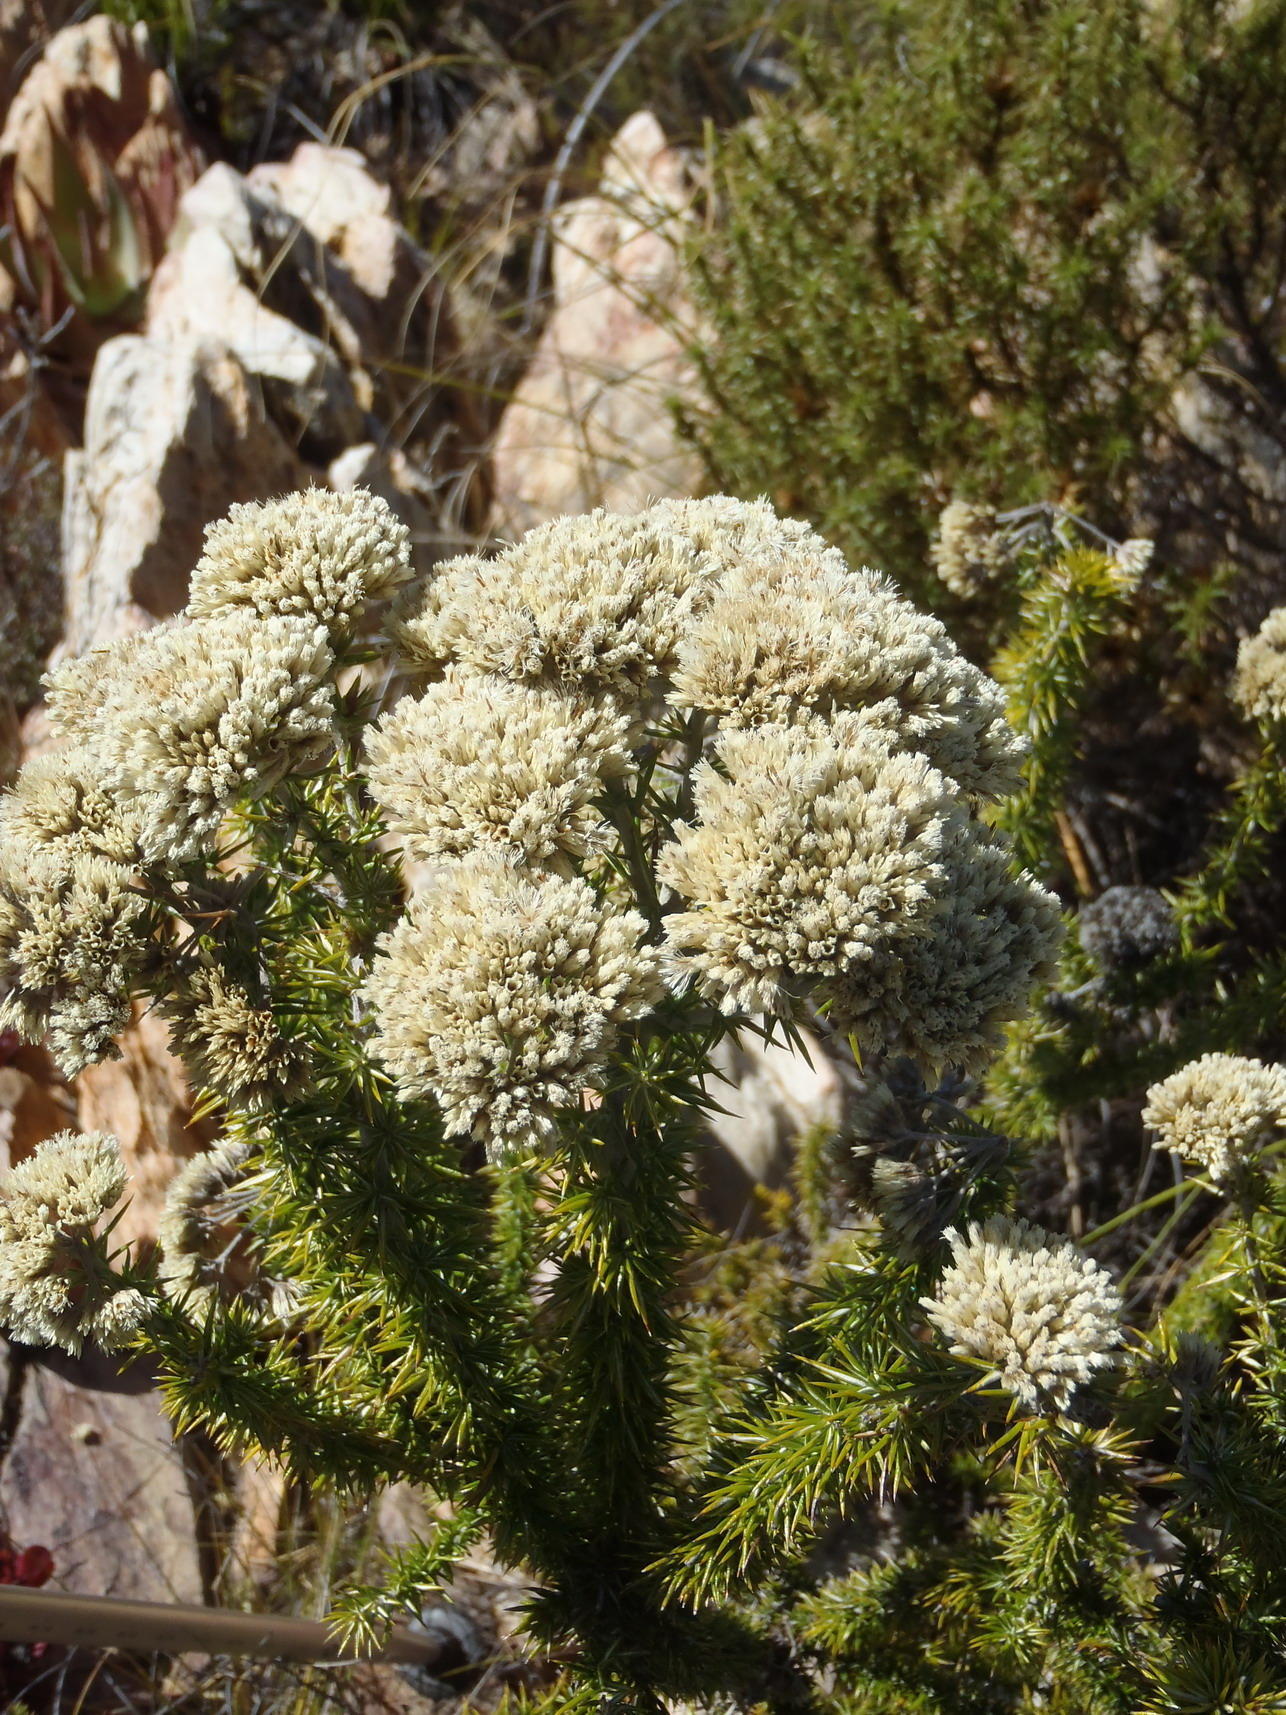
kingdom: Plantae
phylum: Tracheophyta
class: Magnoliopsida
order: Asterales
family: Asteraceae
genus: Metalasia
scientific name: Metalasia acuta
